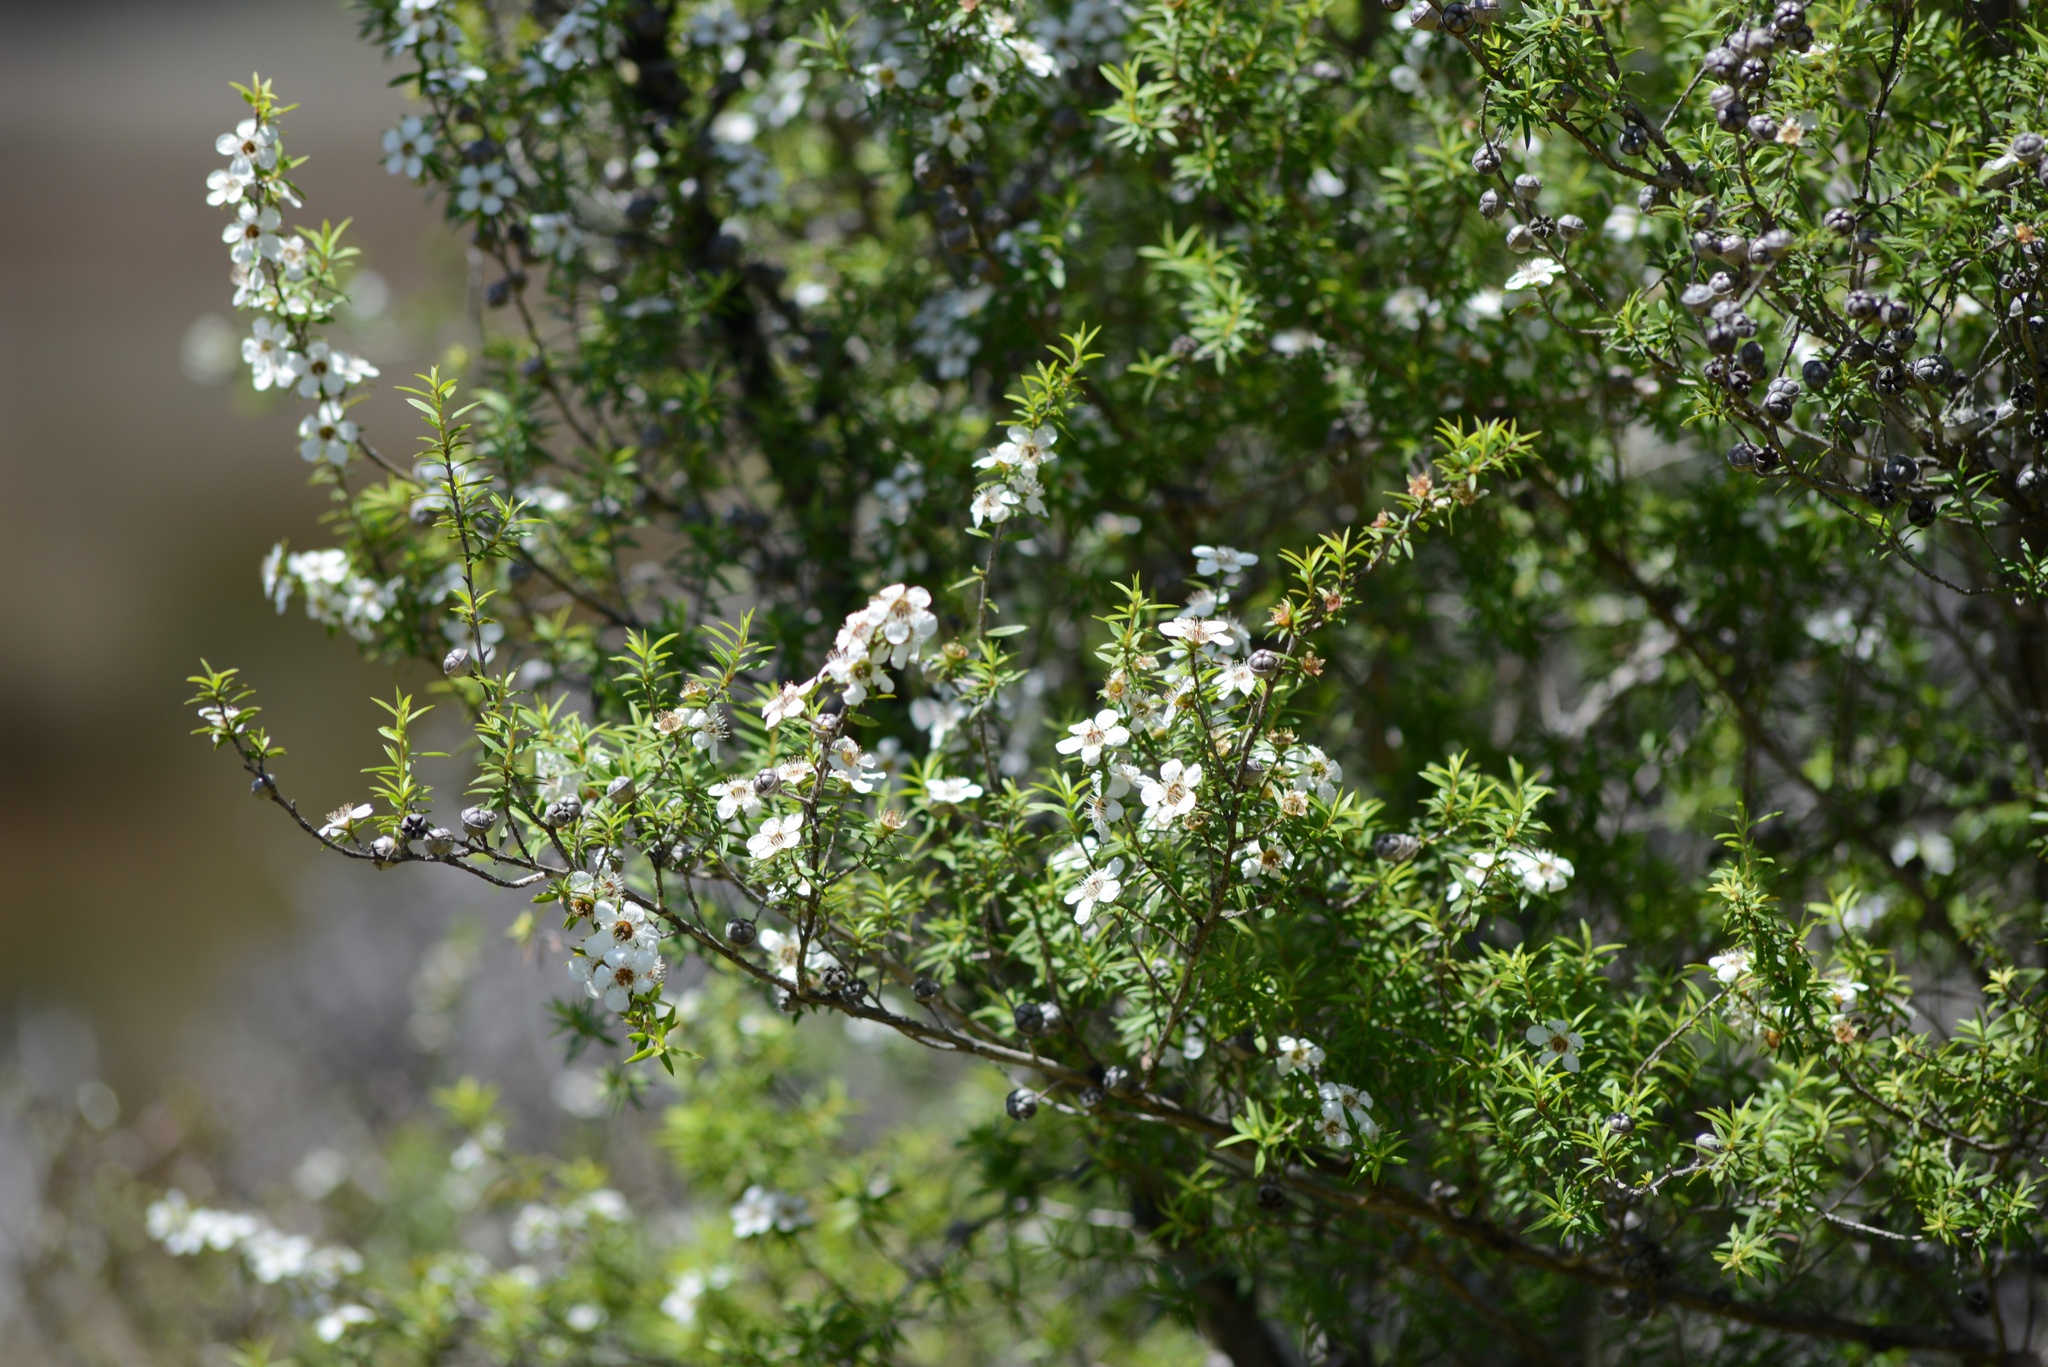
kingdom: Plantae
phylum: Tracheophyta
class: Magnoliopsida
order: Myrtales
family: Myrtaceae
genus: Leptospermum
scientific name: Leptospermum scoparium
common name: Broom tea-tree
